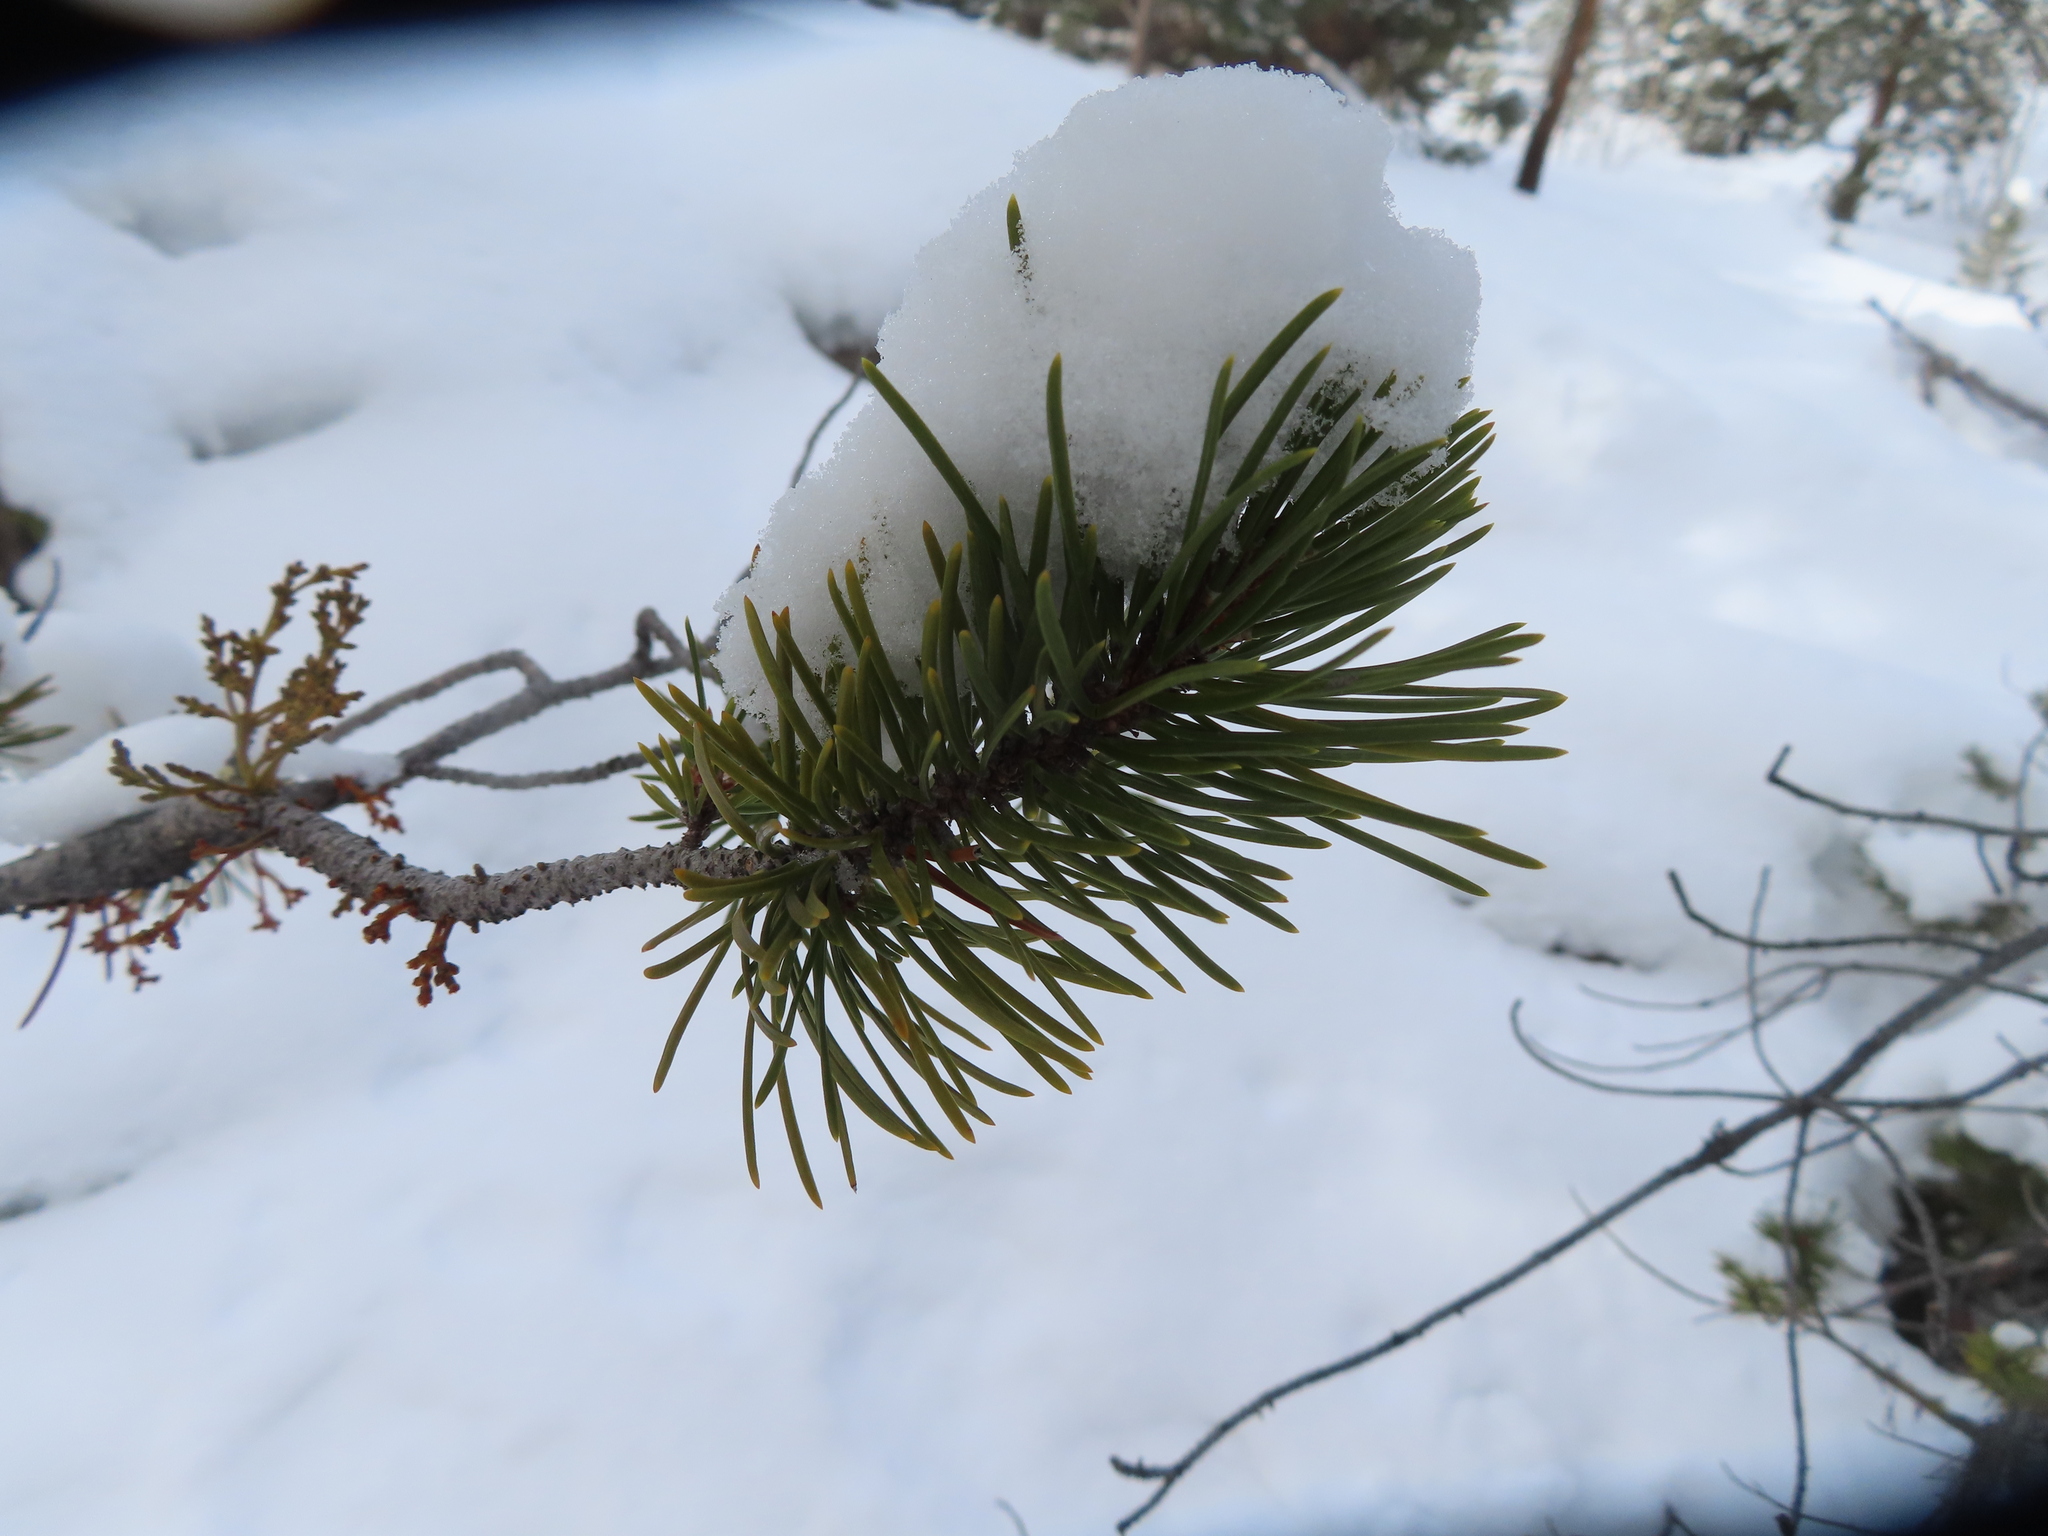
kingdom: Plantae
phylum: Tracheophyta
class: Pinopsida
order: Pinales
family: Pinaceae
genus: Pinus
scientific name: Pinus contorta
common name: Lodgepole pine
